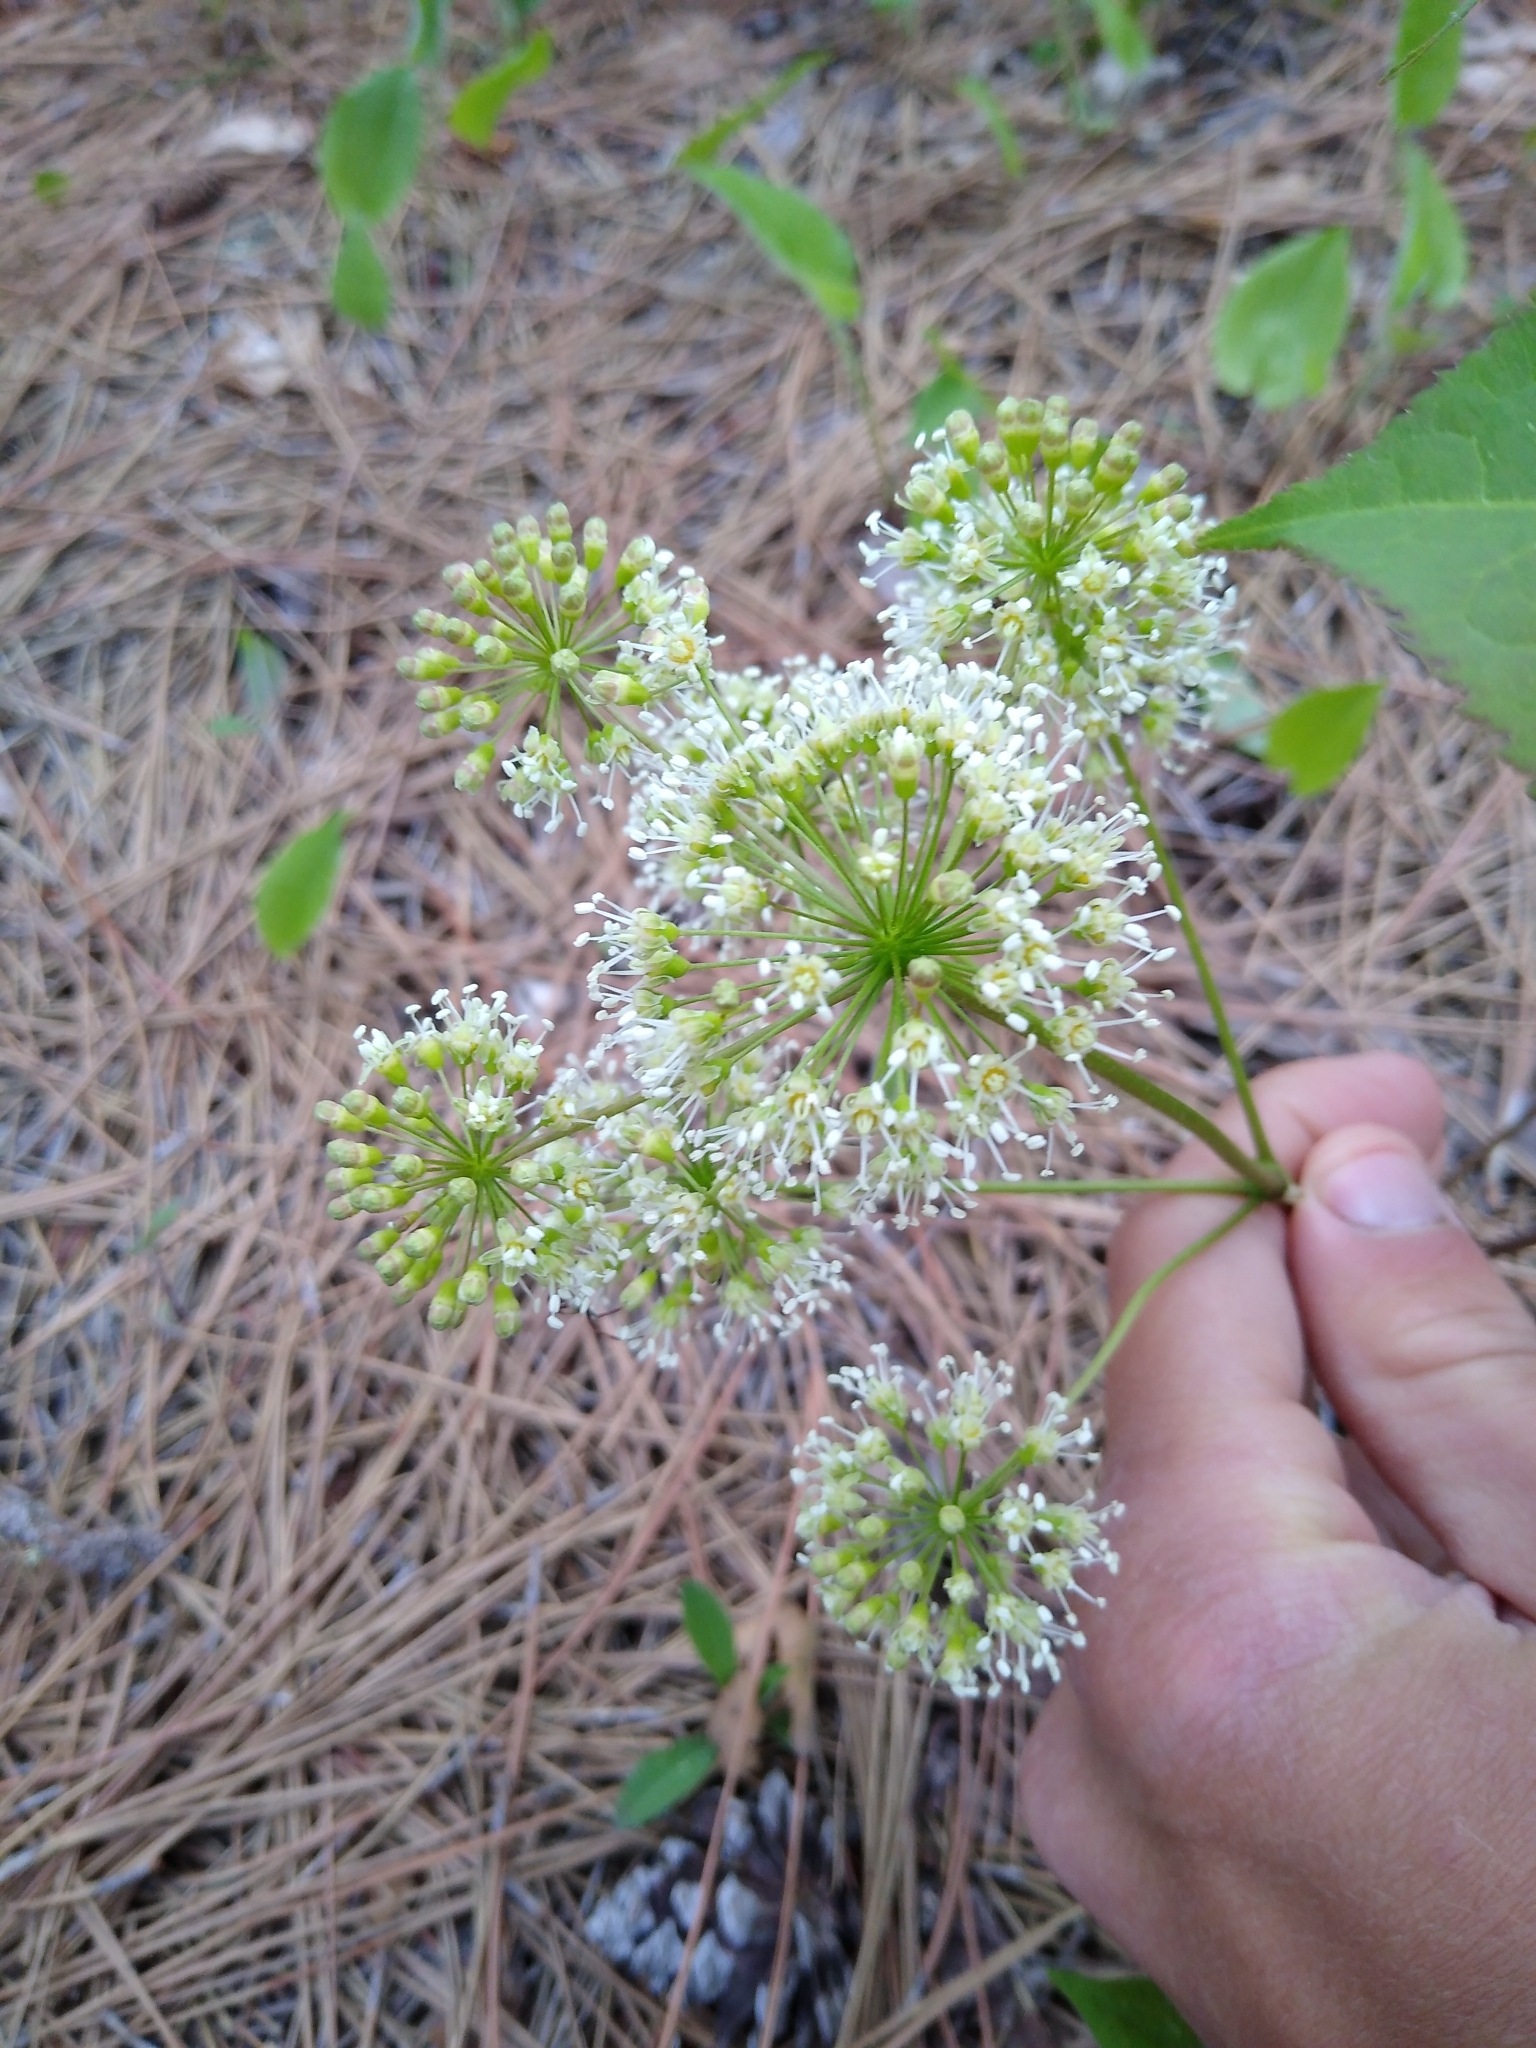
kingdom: Plantae
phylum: Tracheophyta
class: Magnoliopsida
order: Apiales
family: Araliaceae
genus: Aralia
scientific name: Aralia nudicaulis
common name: Wild sarsaparilla
